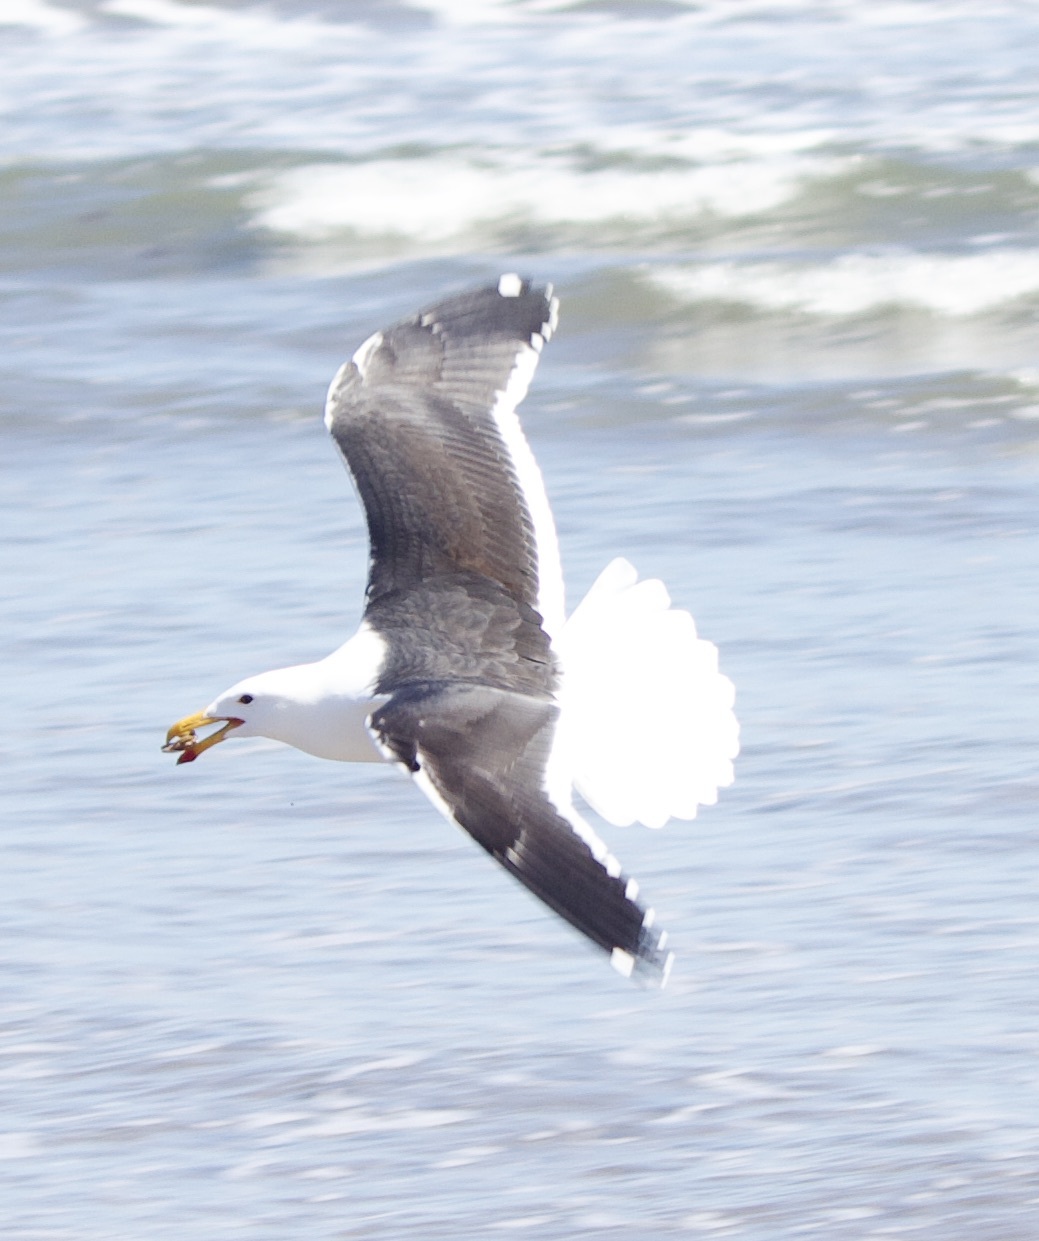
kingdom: Animalia
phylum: Chordata
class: Aves
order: Charadriiformes
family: Laridae
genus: Larus
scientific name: Larus dominicanus
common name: Kelp gull
